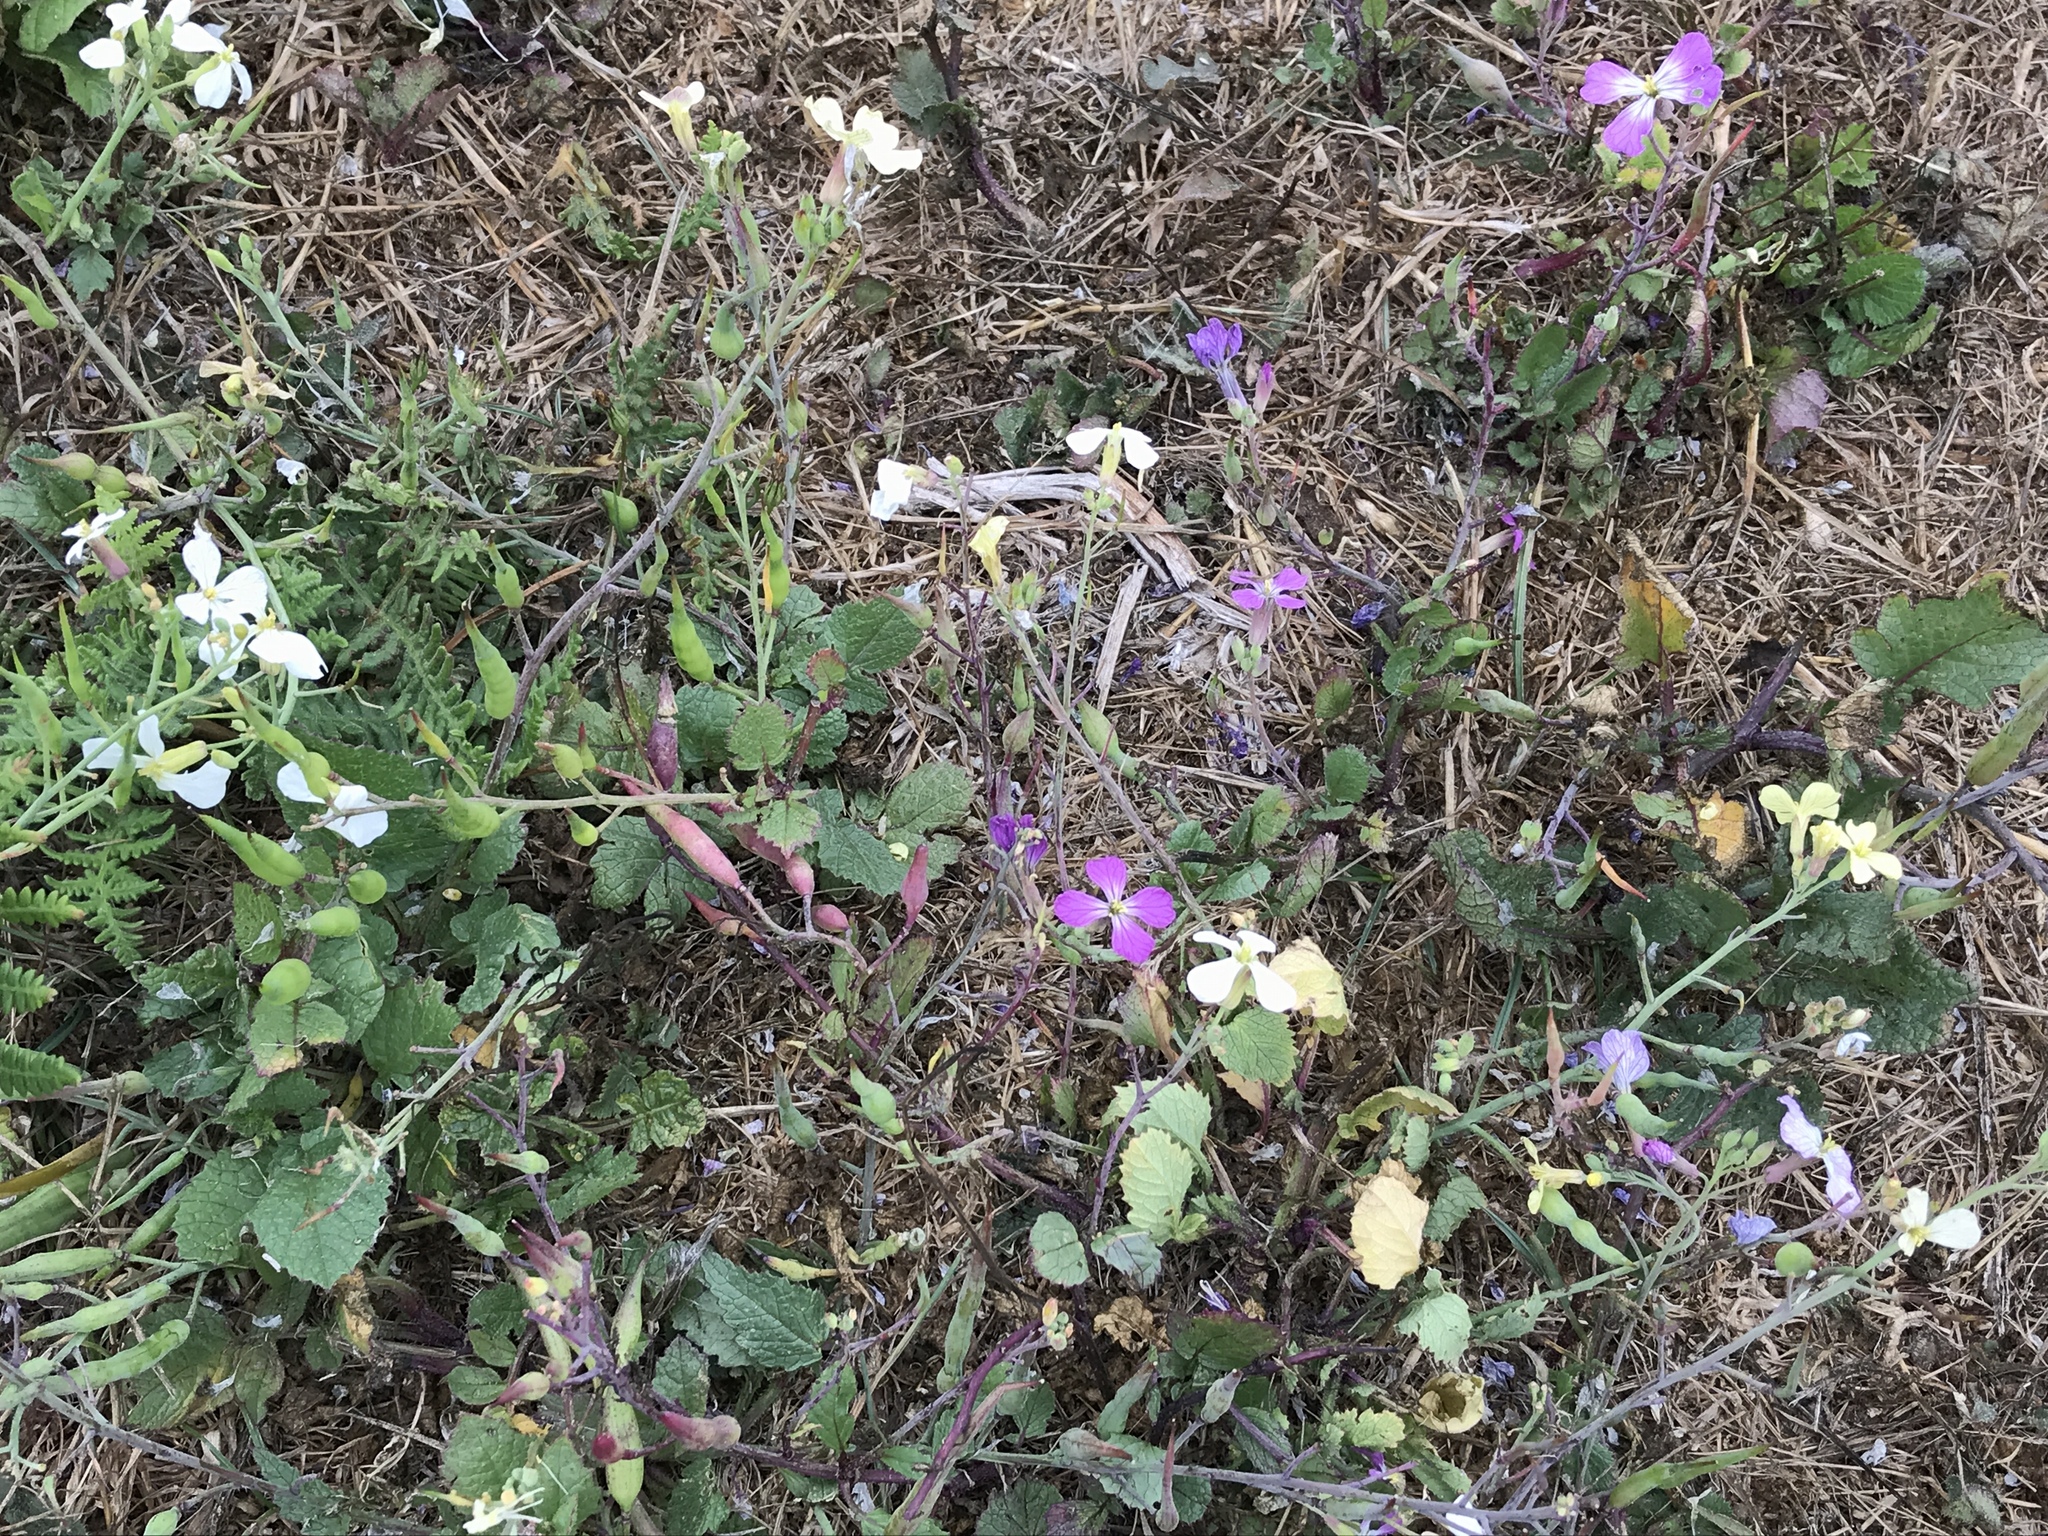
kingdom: Plantae
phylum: Tracheophyta
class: Magnoliopsida
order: Brassicales
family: Brassicaceae
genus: Raphanus
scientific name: Raphanus sativus
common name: Cultivated radish
